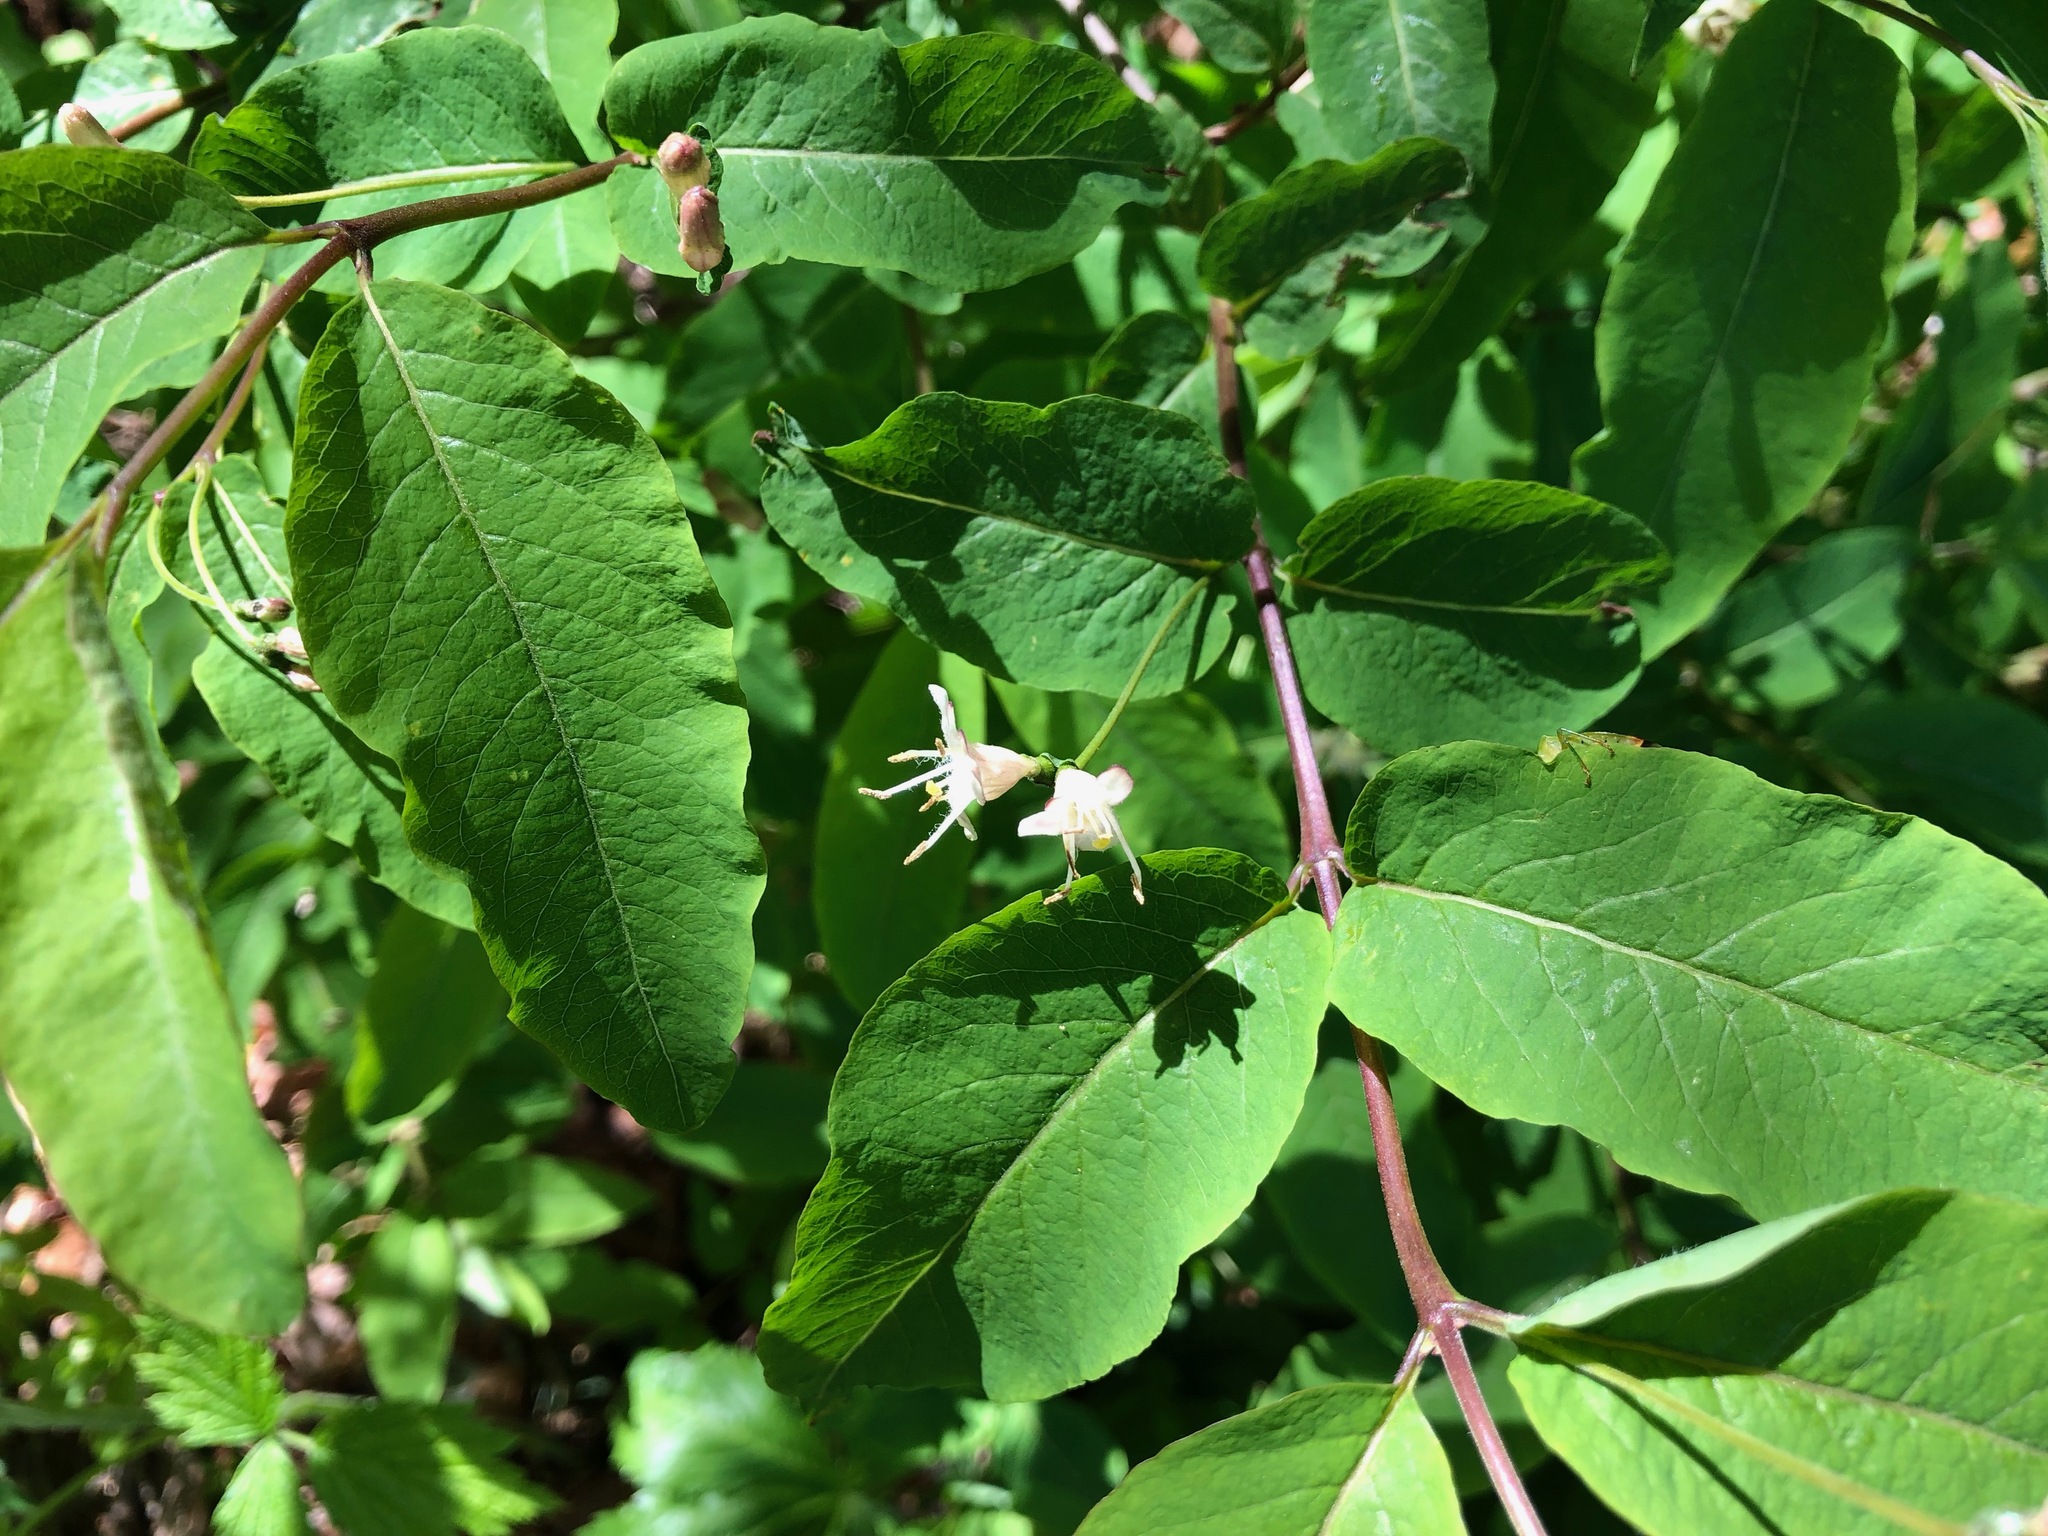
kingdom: Plantae
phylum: Tracheophyta
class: Magnoliopsida
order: Dipsacales
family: Caprifoliaceae
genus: Lonicera
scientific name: Lonicera nigra
